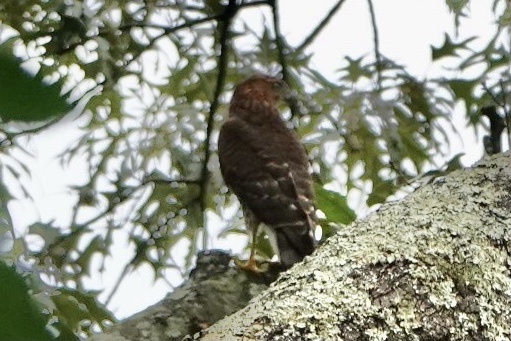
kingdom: Animalia
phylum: Chordata
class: Aves
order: Accipitriformes
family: Accipitridae
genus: Accipiter
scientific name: Accipiter cooperii
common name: Cooper's hawk
